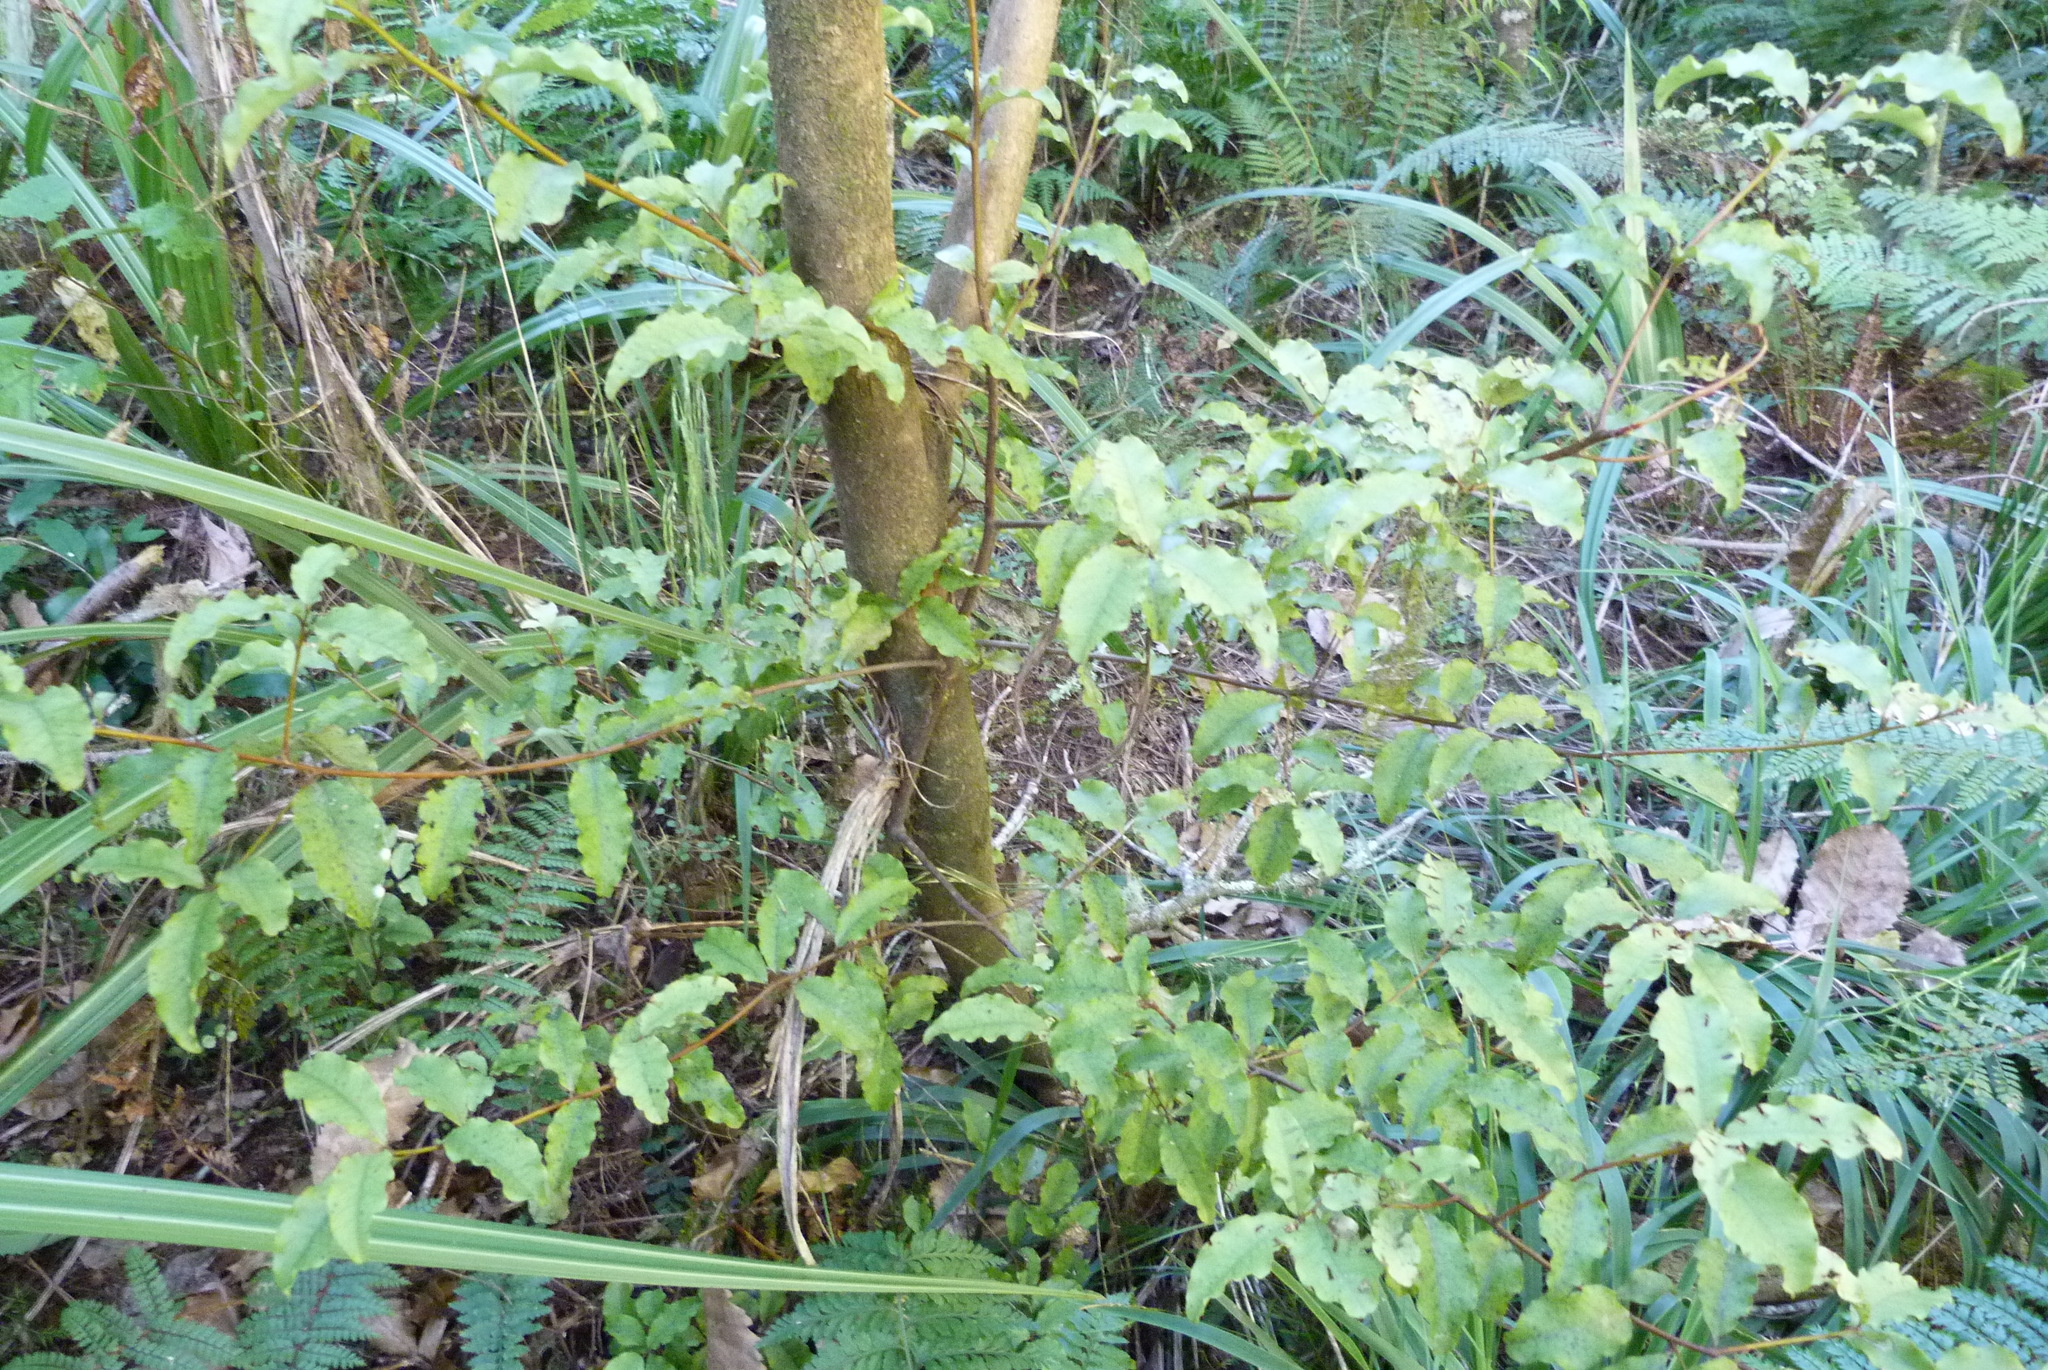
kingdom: Plantae
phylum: Tracheophyta
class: Magnoliopsida
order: Ericales
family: Primulaceae
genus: Myrsine
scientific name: Myrsine australis
